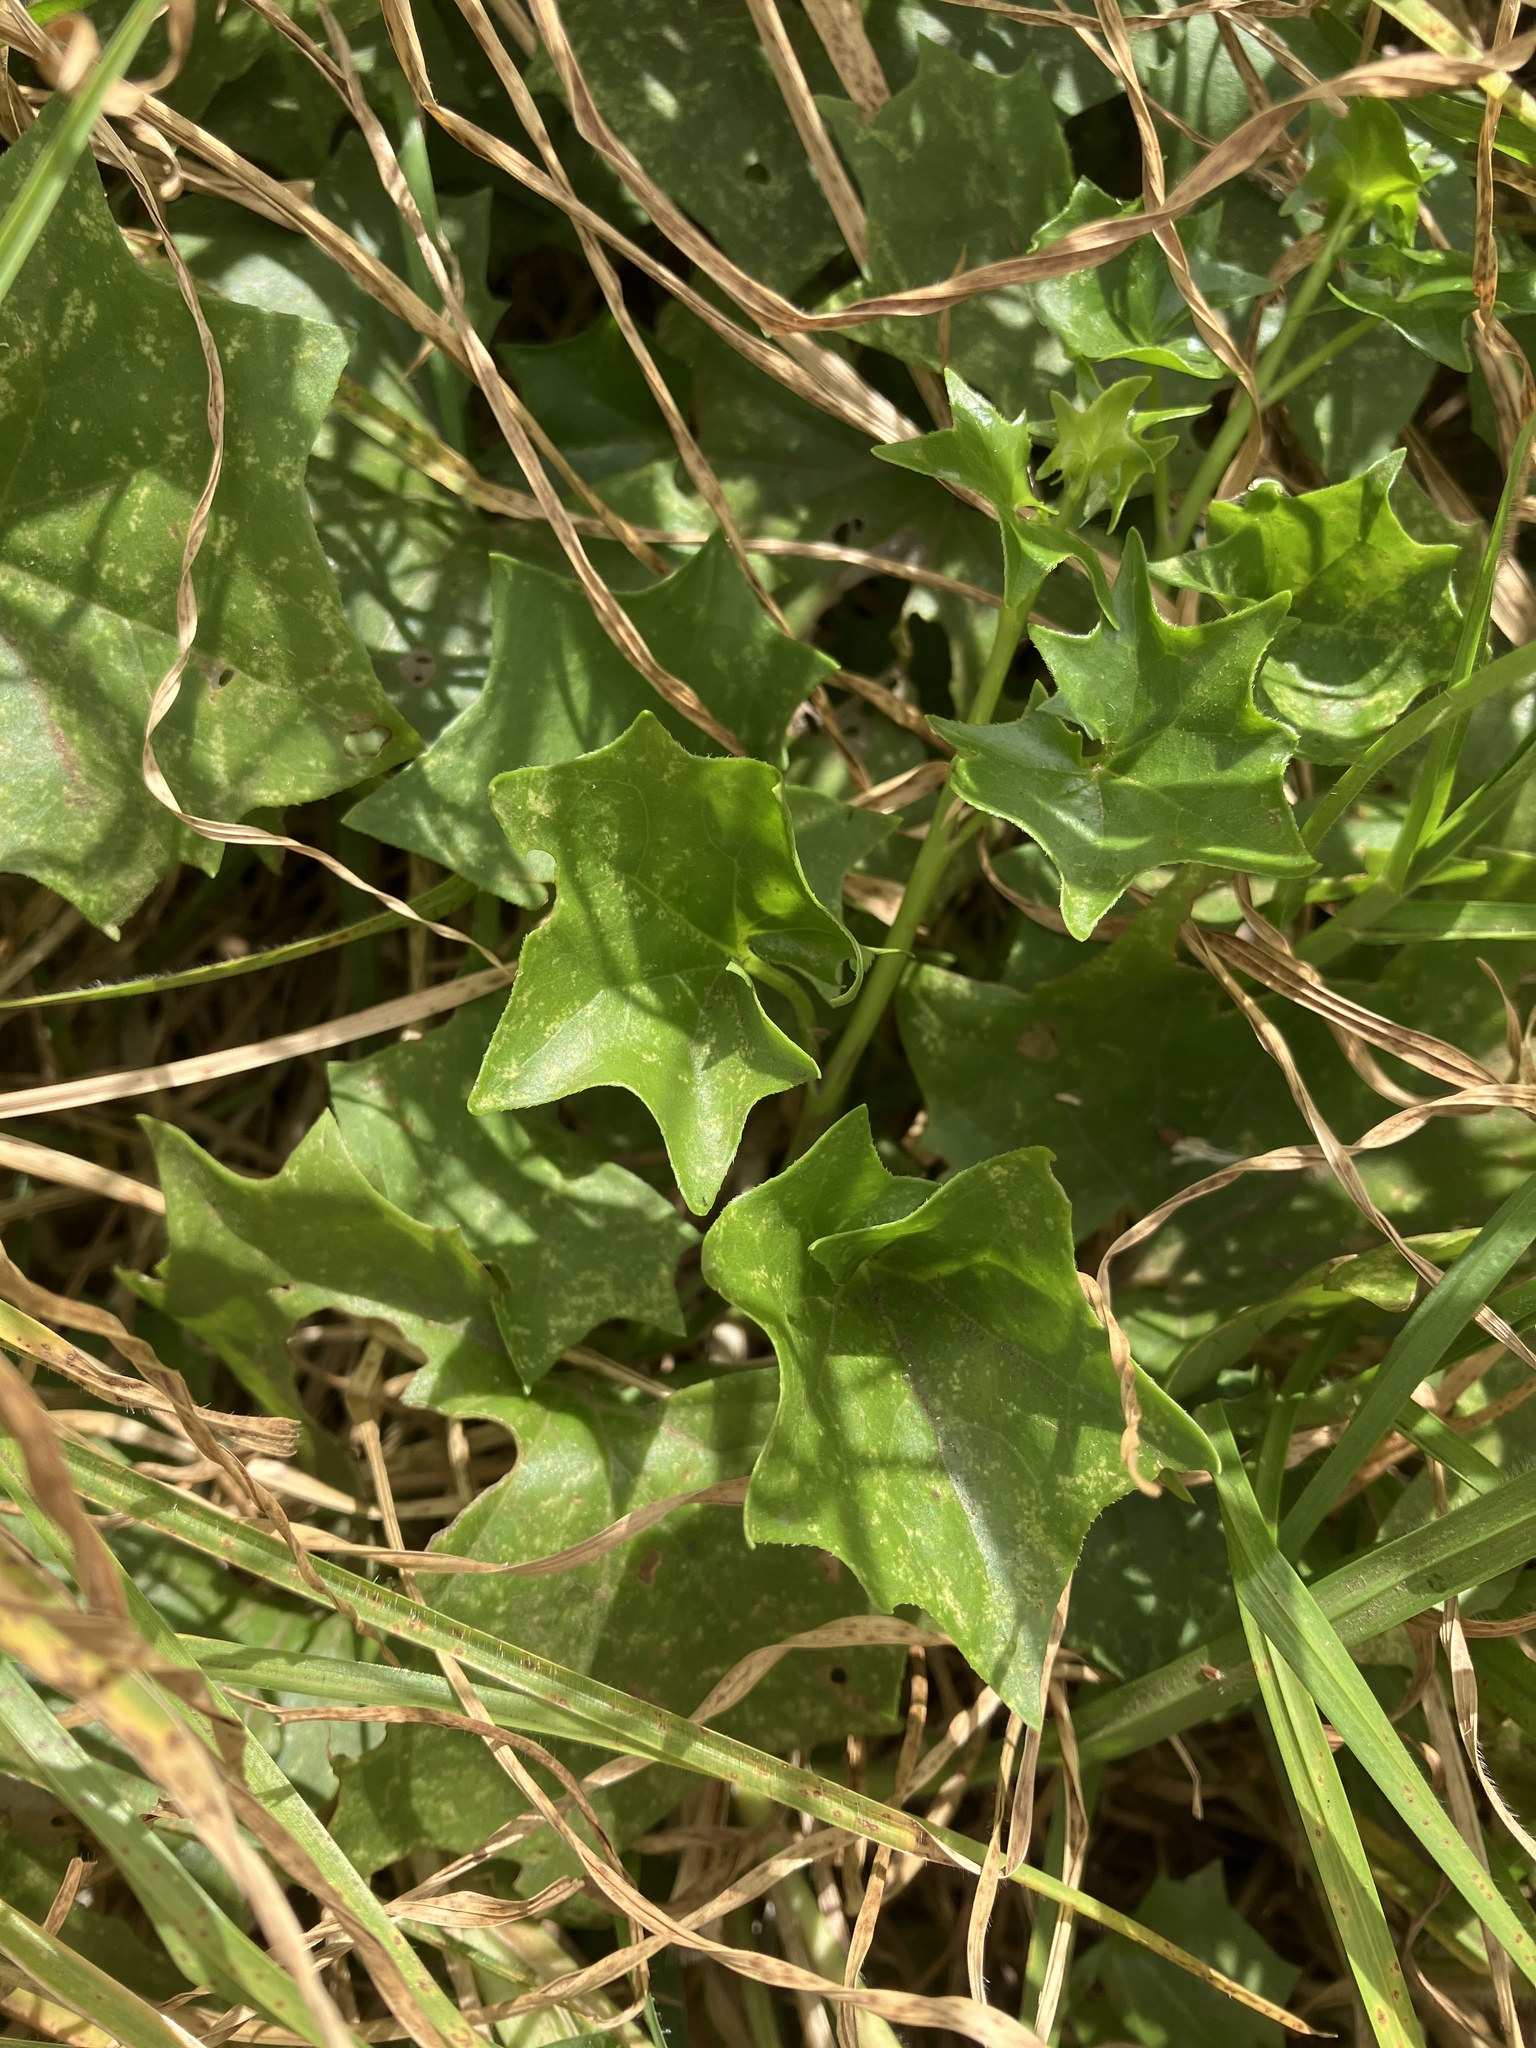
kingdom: Plantae
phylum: Tracheophyta
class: Magnoliopsida
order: Asterales
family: Asteraceae
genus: Delairea
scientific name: Delairea odorata
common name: Cape-ivy
